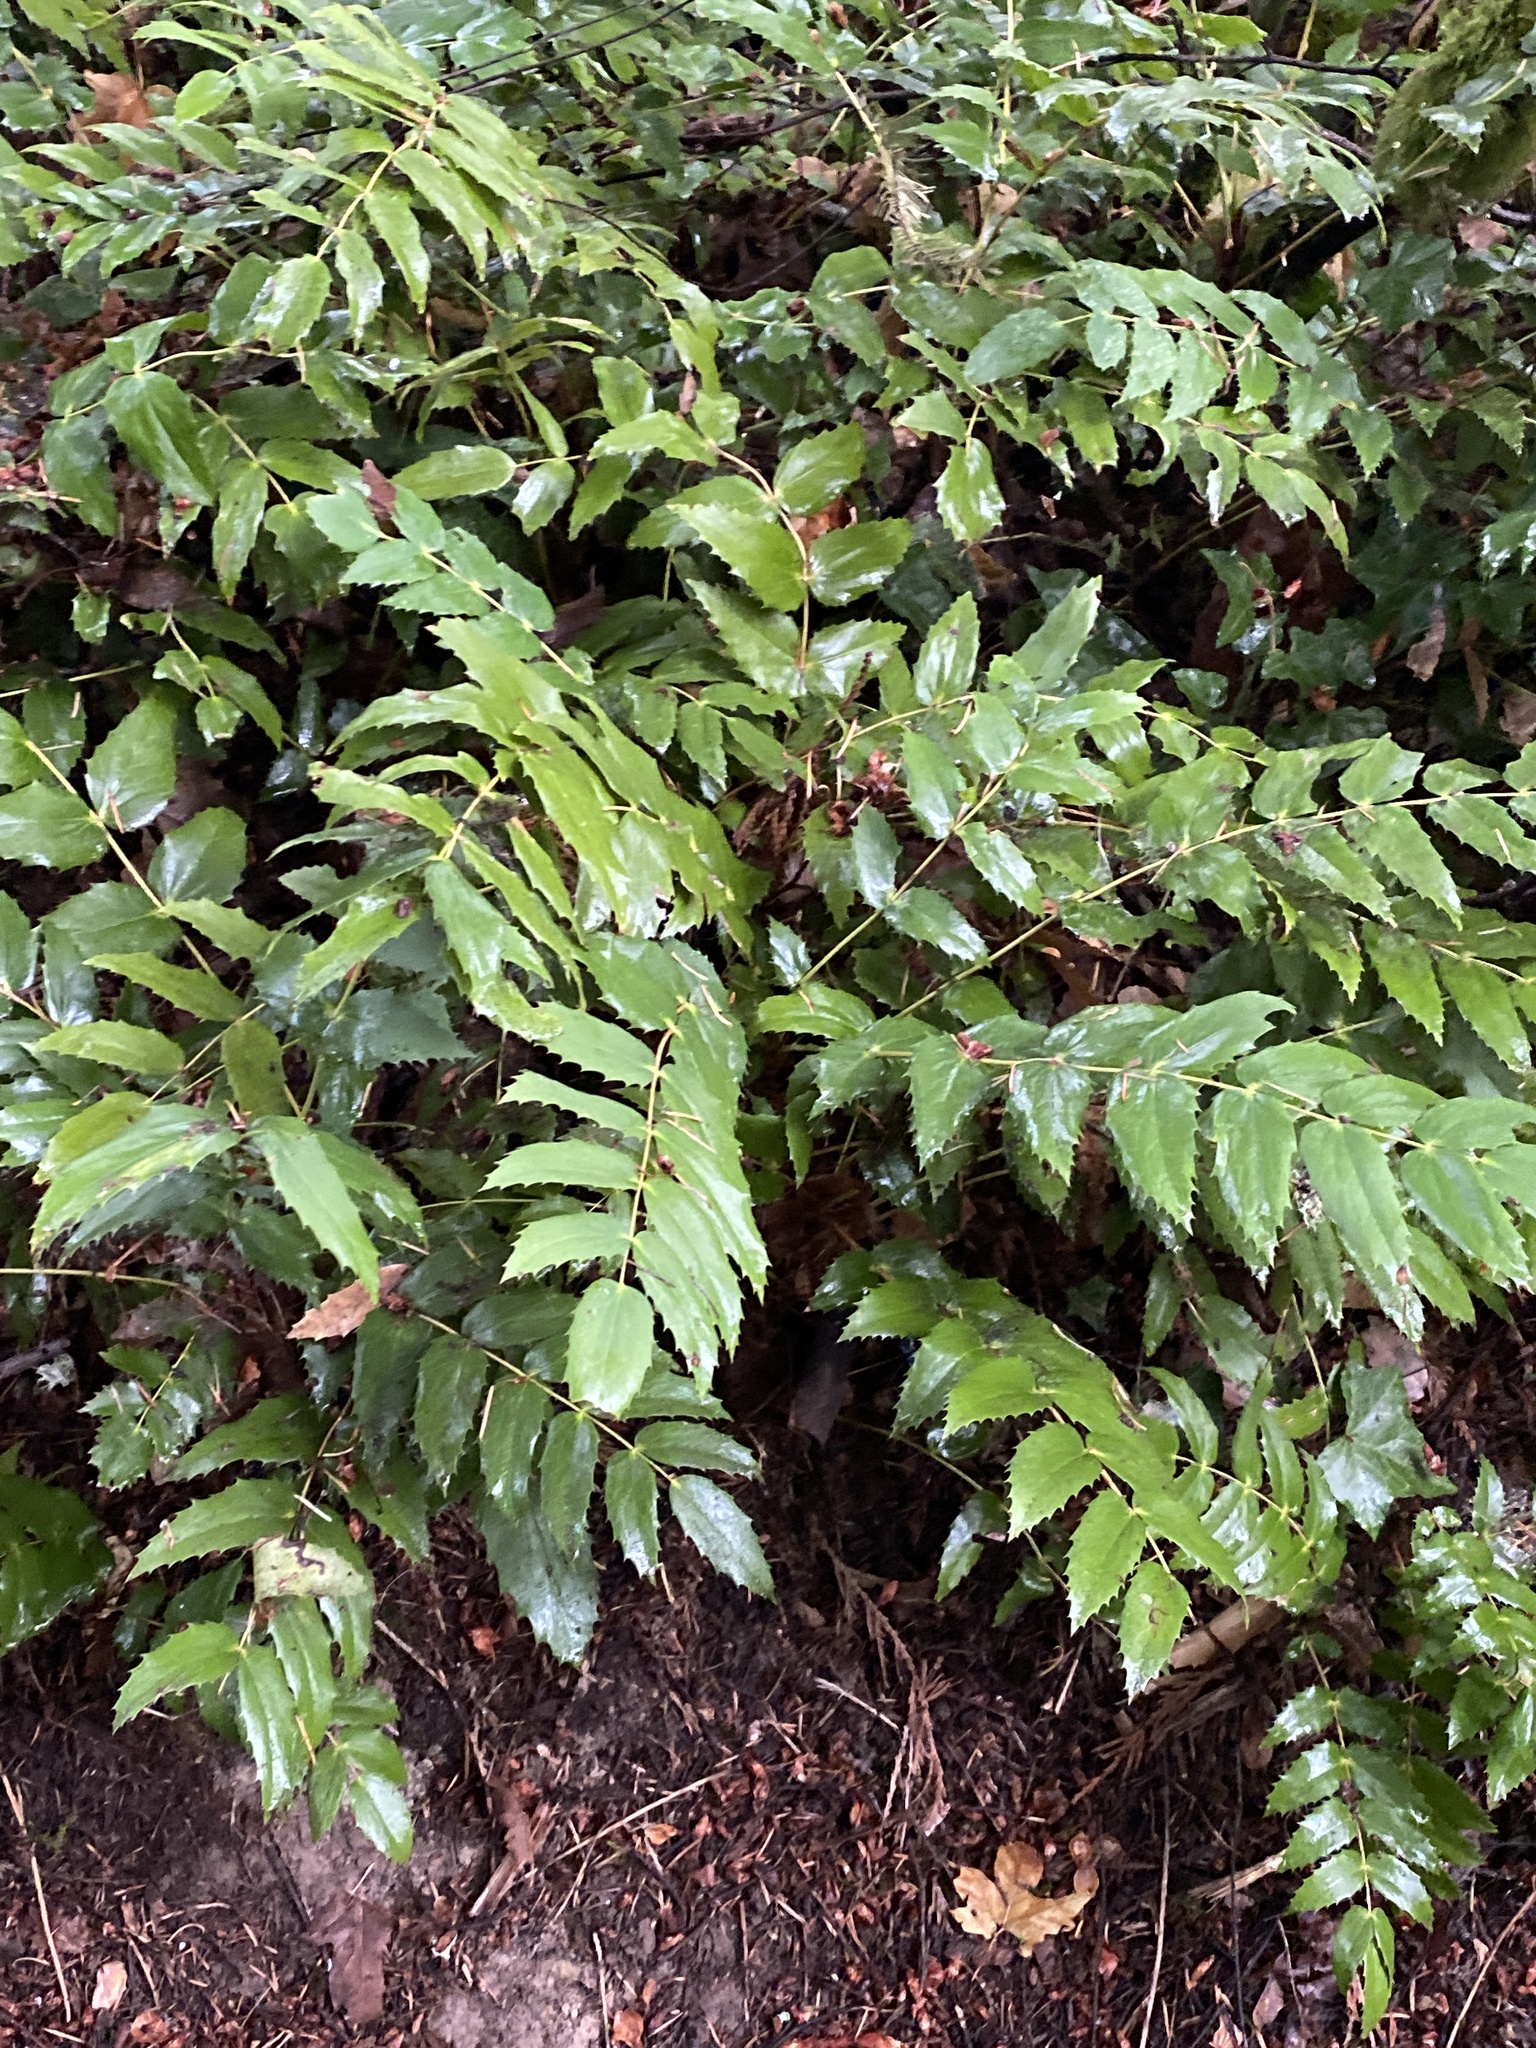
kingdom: Plantae
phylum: Tracheophyta
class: Magnoliopsida
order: Ranunculales
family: Berberidaceae
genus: Mahonia
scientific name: Mahonia nervosa
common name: Cascade oregon-grape
